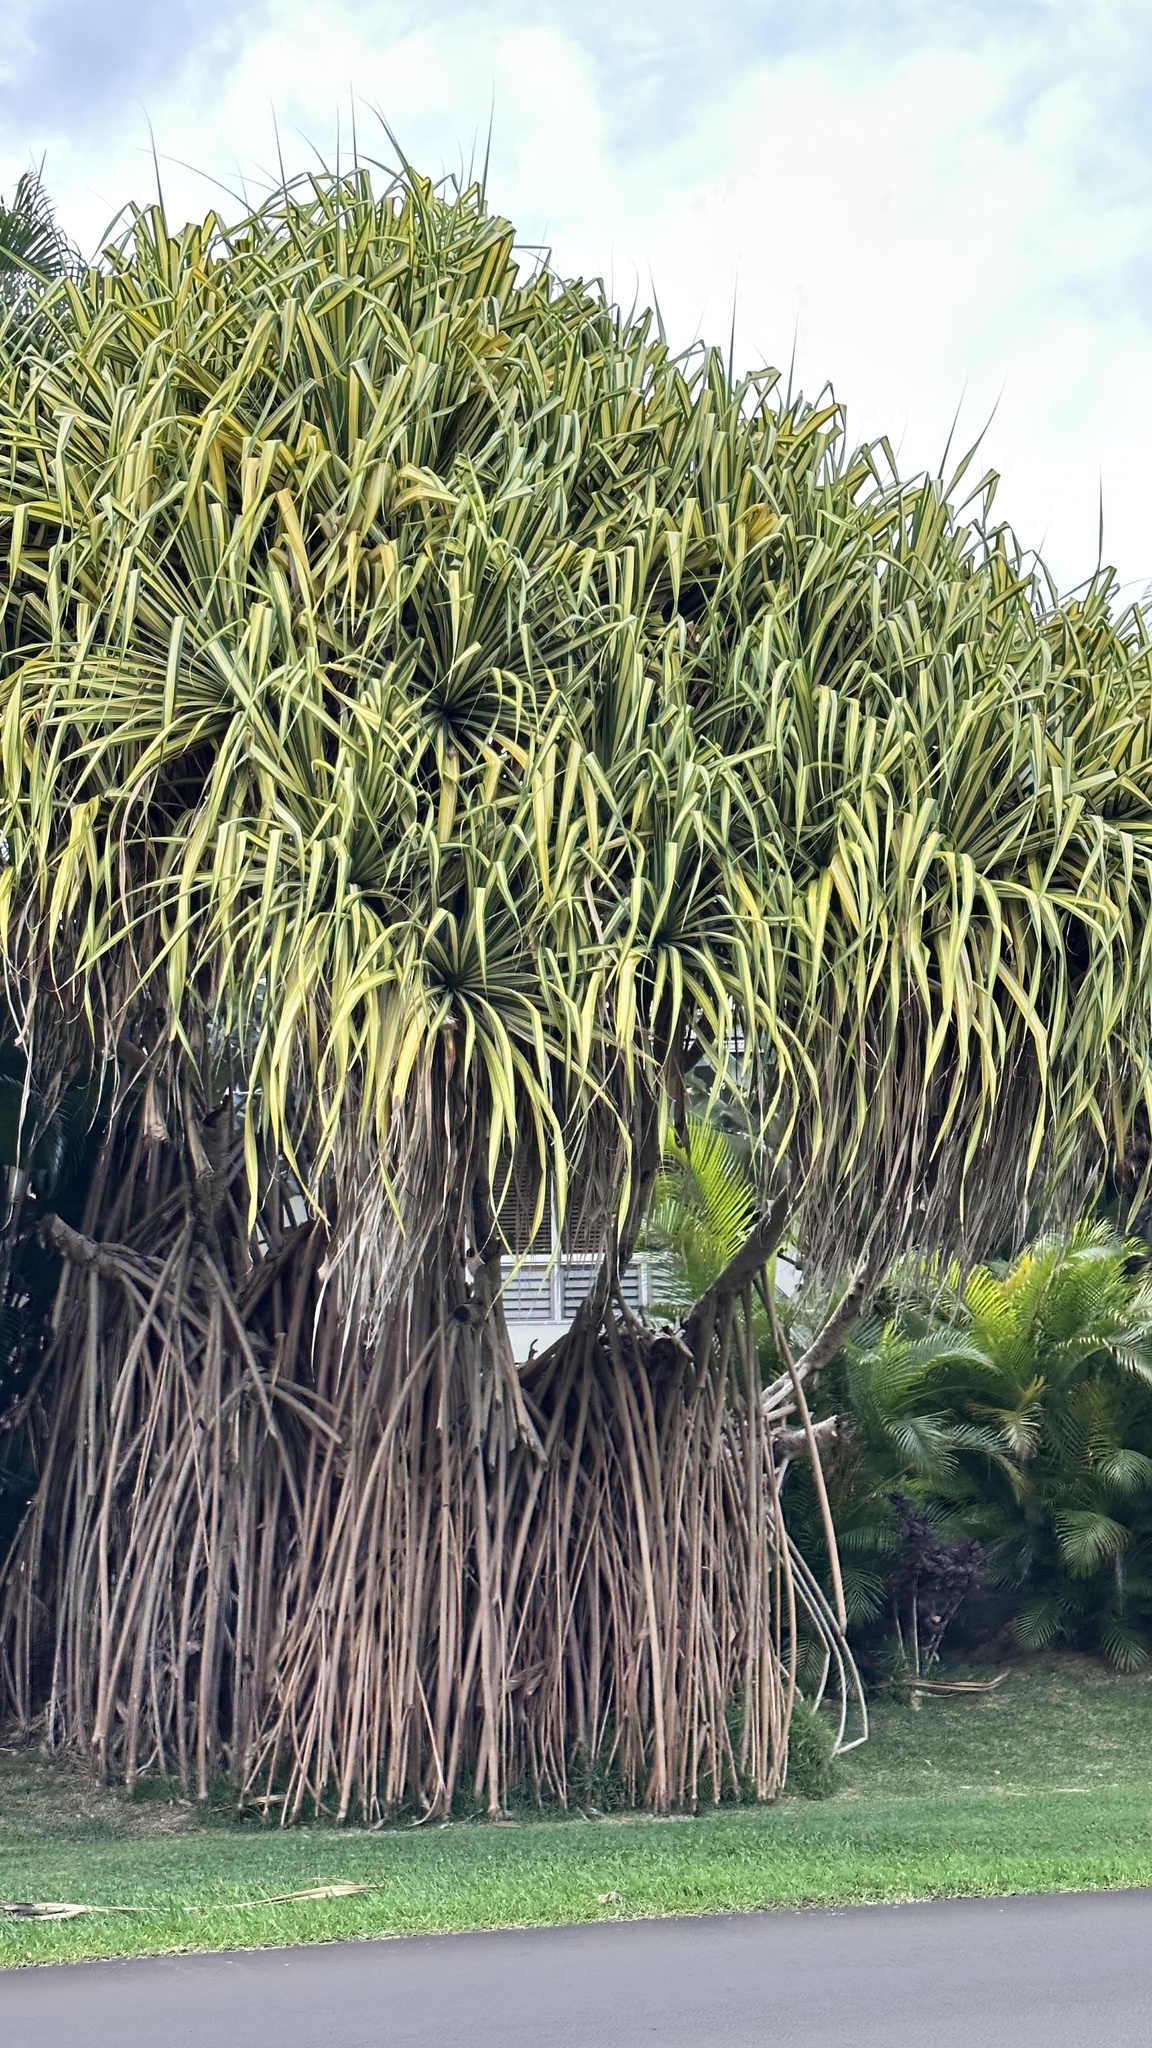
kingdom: Plantae
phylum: Tracheophyta
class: Liliopsida
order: Pandanales
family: Pandanaceae
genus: Pandanus
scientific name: Pandanus tectorius
